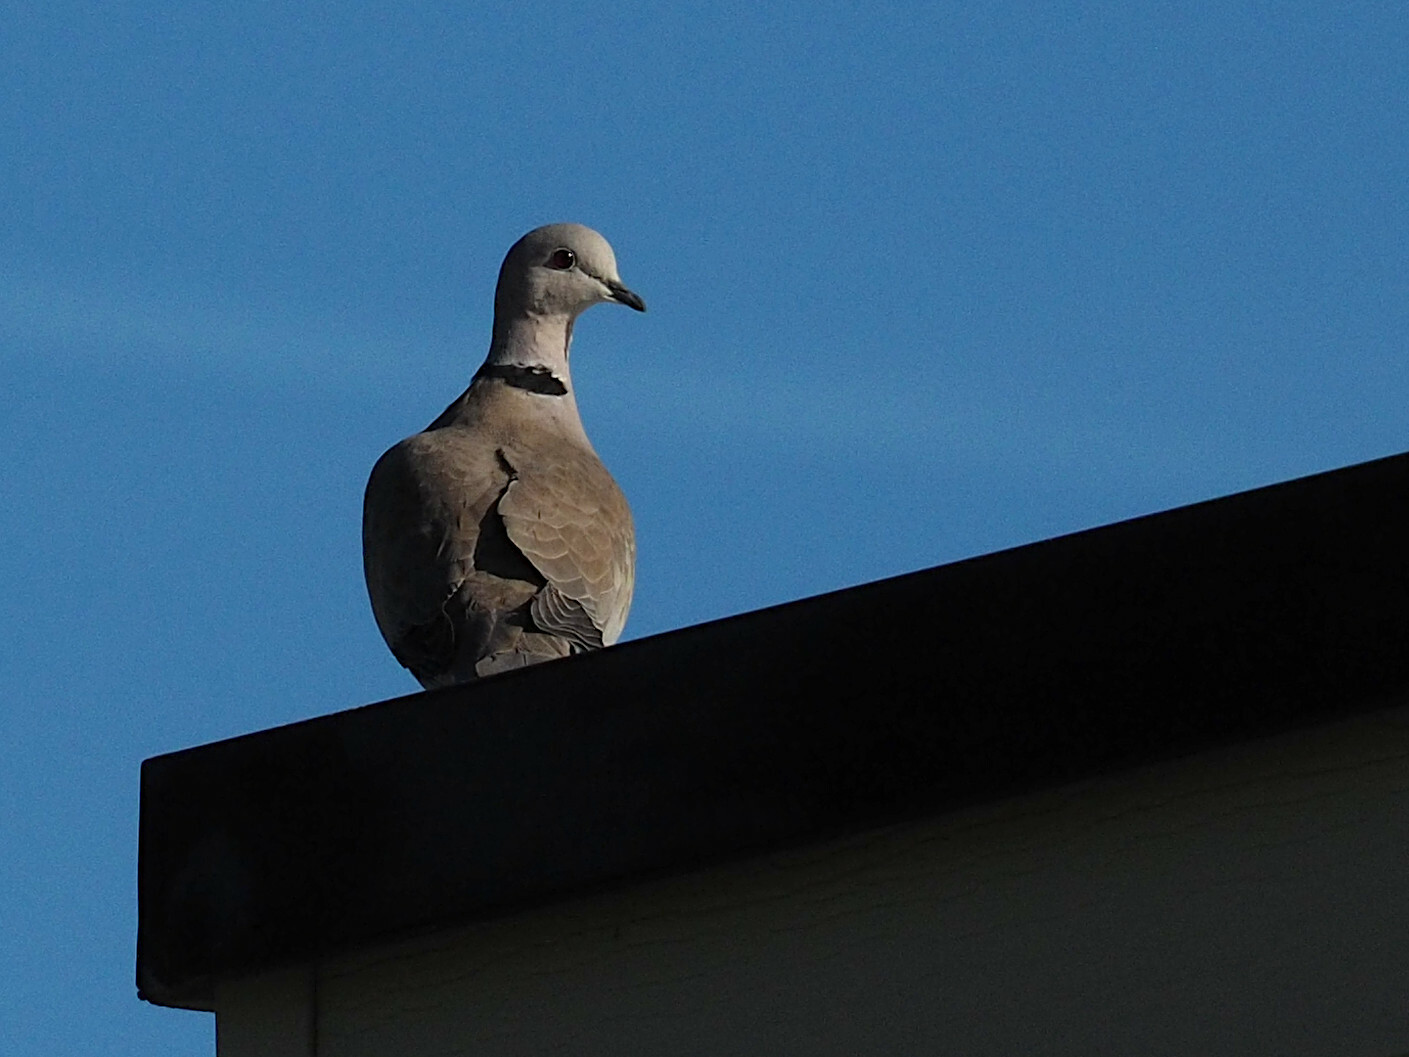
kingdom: Animalia
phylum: Chordata
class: Aves
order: Columbiformes
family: Columbidae
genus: Streptopelia
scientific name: Streptopelia decaocto
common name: Eurasian collared dove
